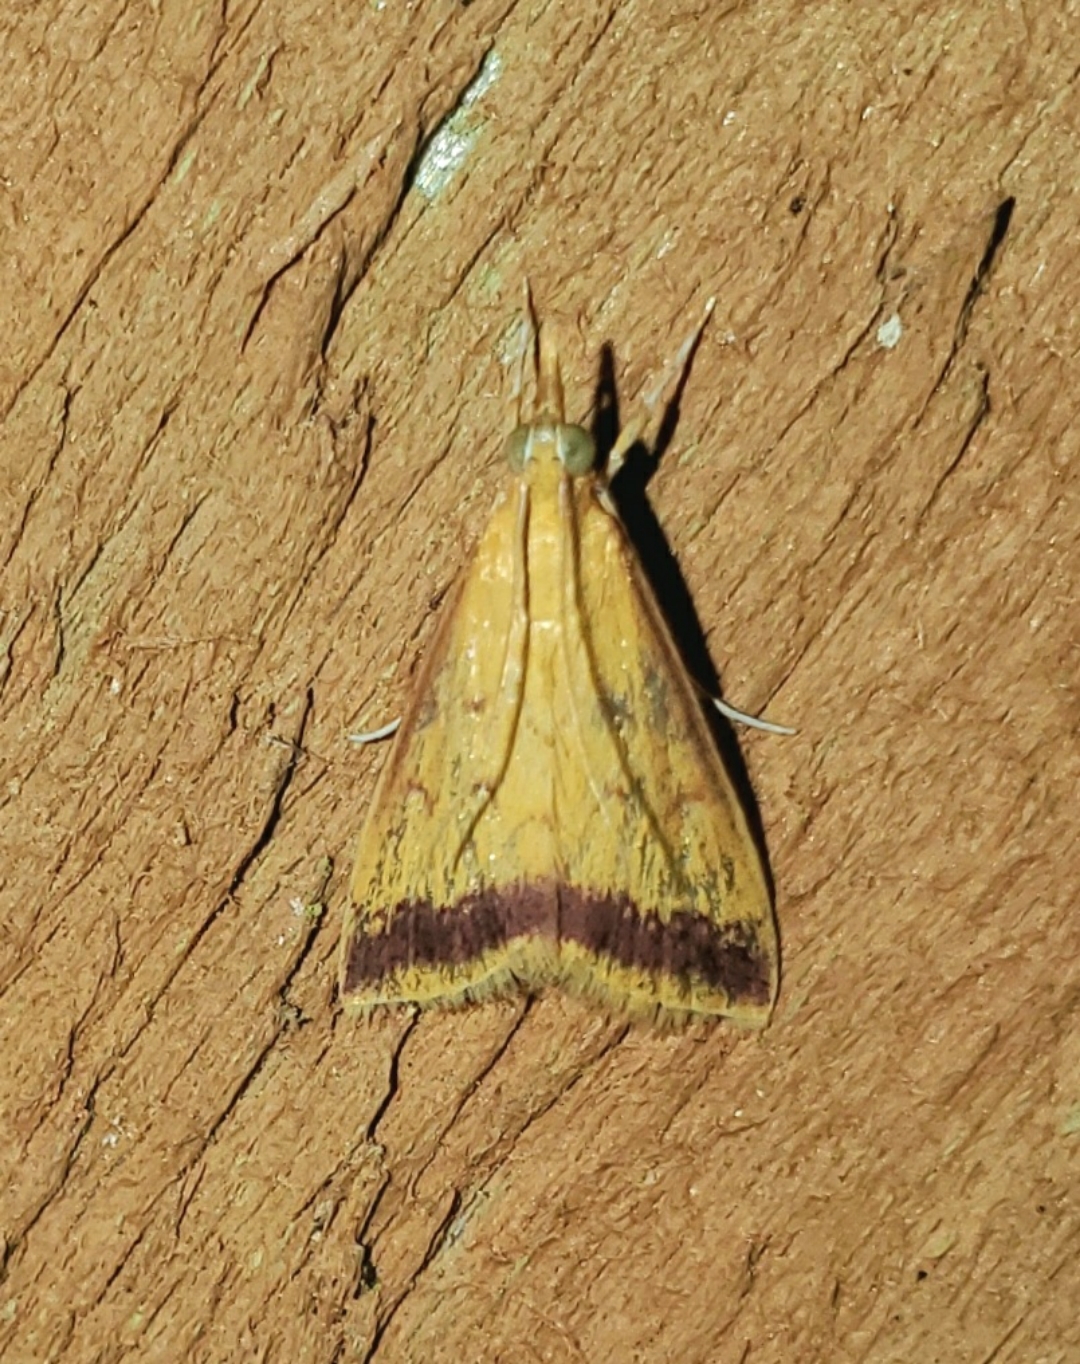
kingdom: Animalia
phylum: Arthropoda
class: Insecta
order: Lepidoptera
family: Crambidae
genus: Hyalorista
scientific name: Hyalorista taeniolalis
